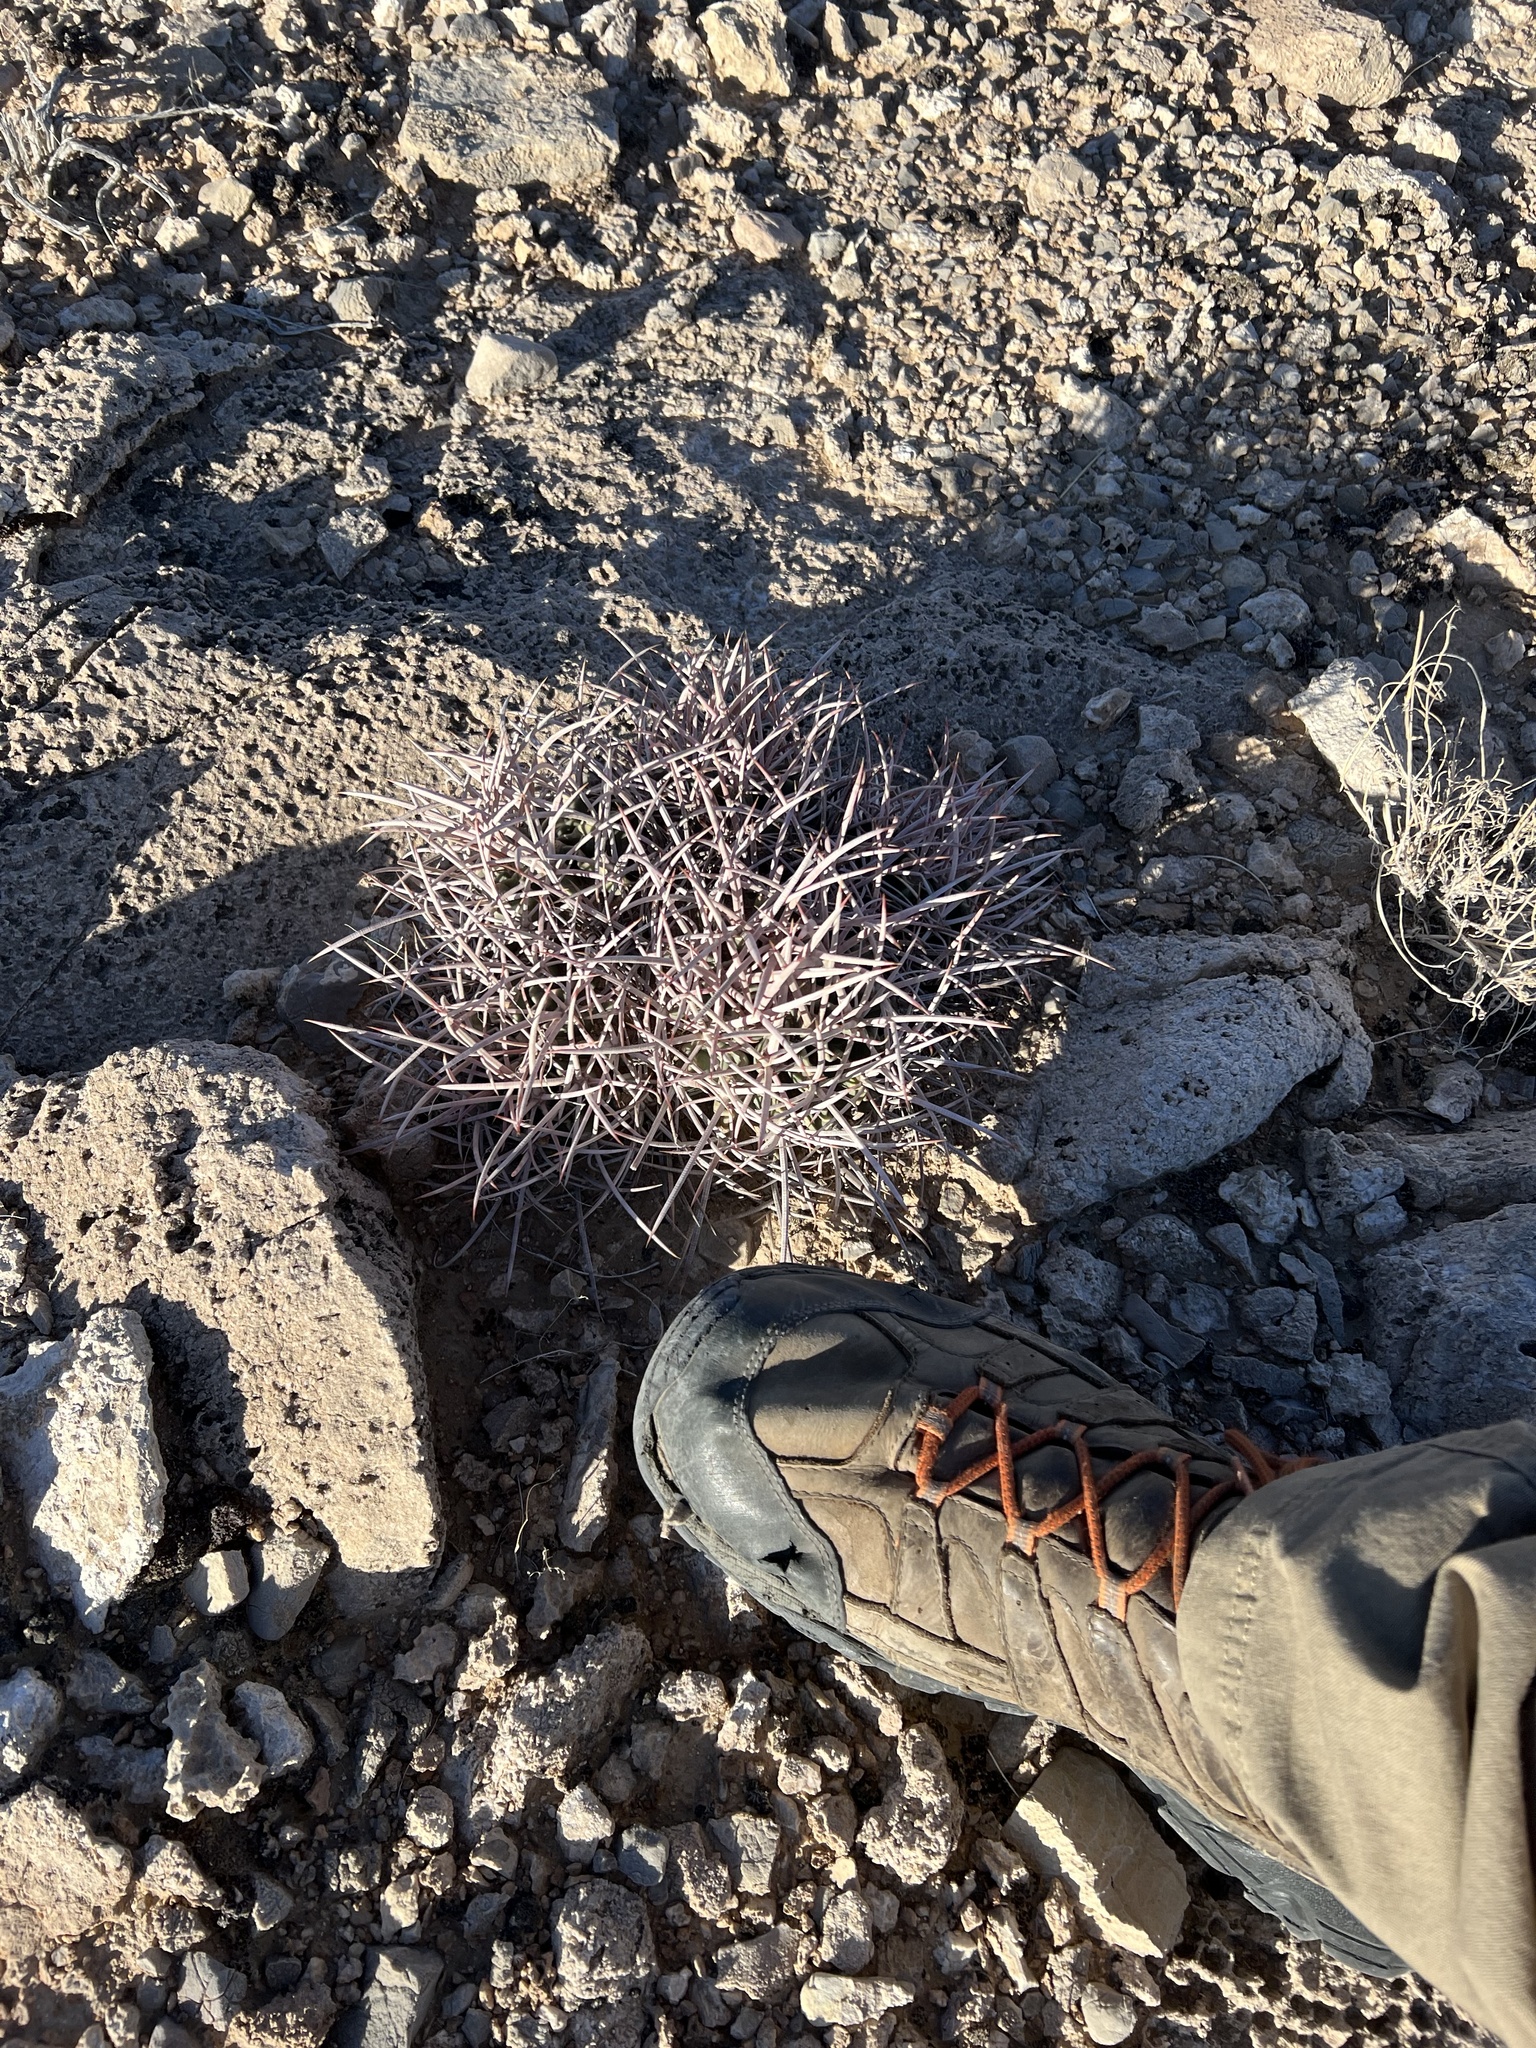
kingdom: Plantae
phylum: Tracheophyta
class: Magnoliopsida
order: Caryophyllales
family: Cactaceae
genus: Echinocactus
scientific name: Echinocactus polycephalus
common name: Cottontop cactus
